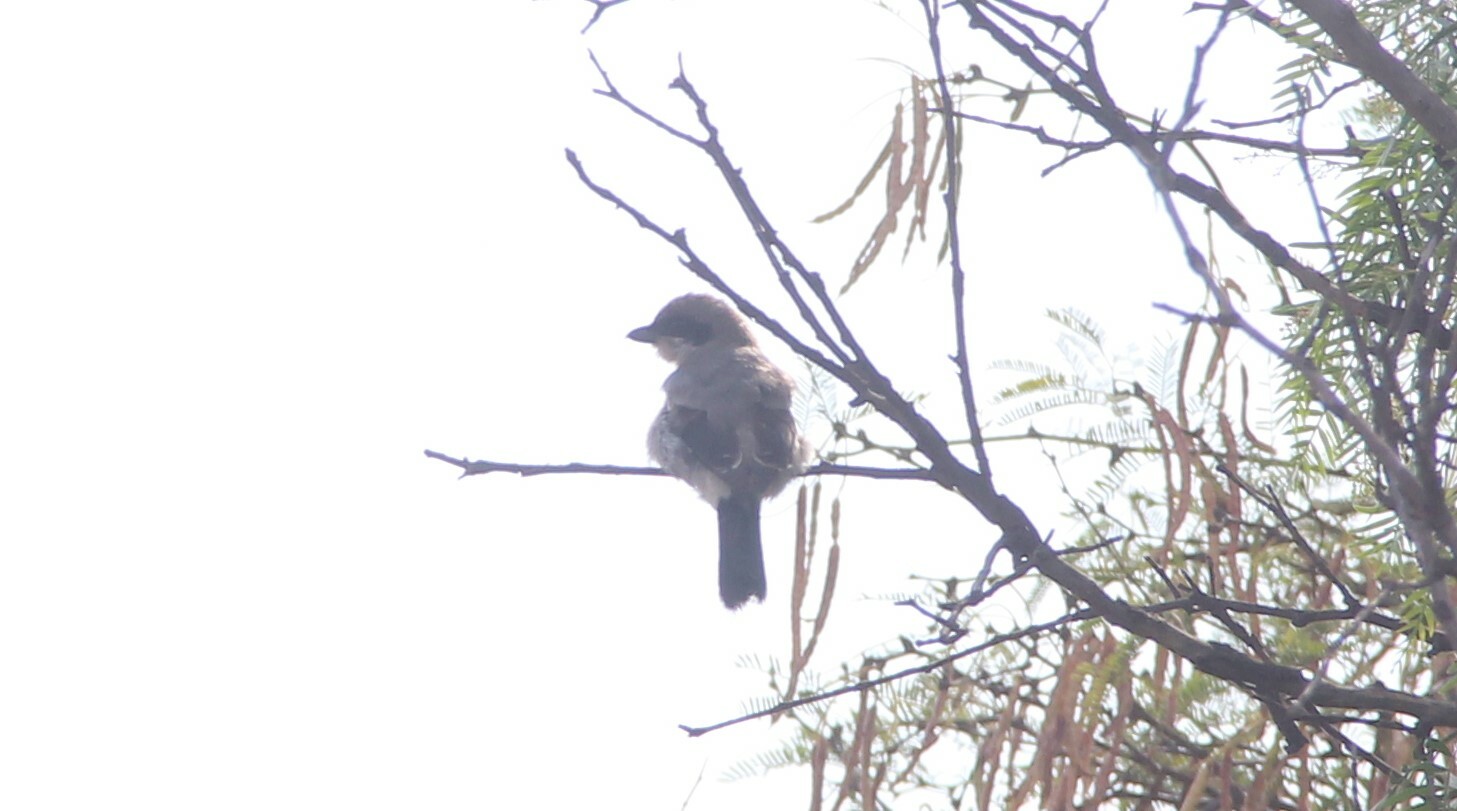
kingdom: Animalia
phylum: Chordata
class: Aves
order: Passeriformes
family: Laniidae
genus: Lanius
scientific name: Lanius ludovicianus
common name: Loggerhead shrike
